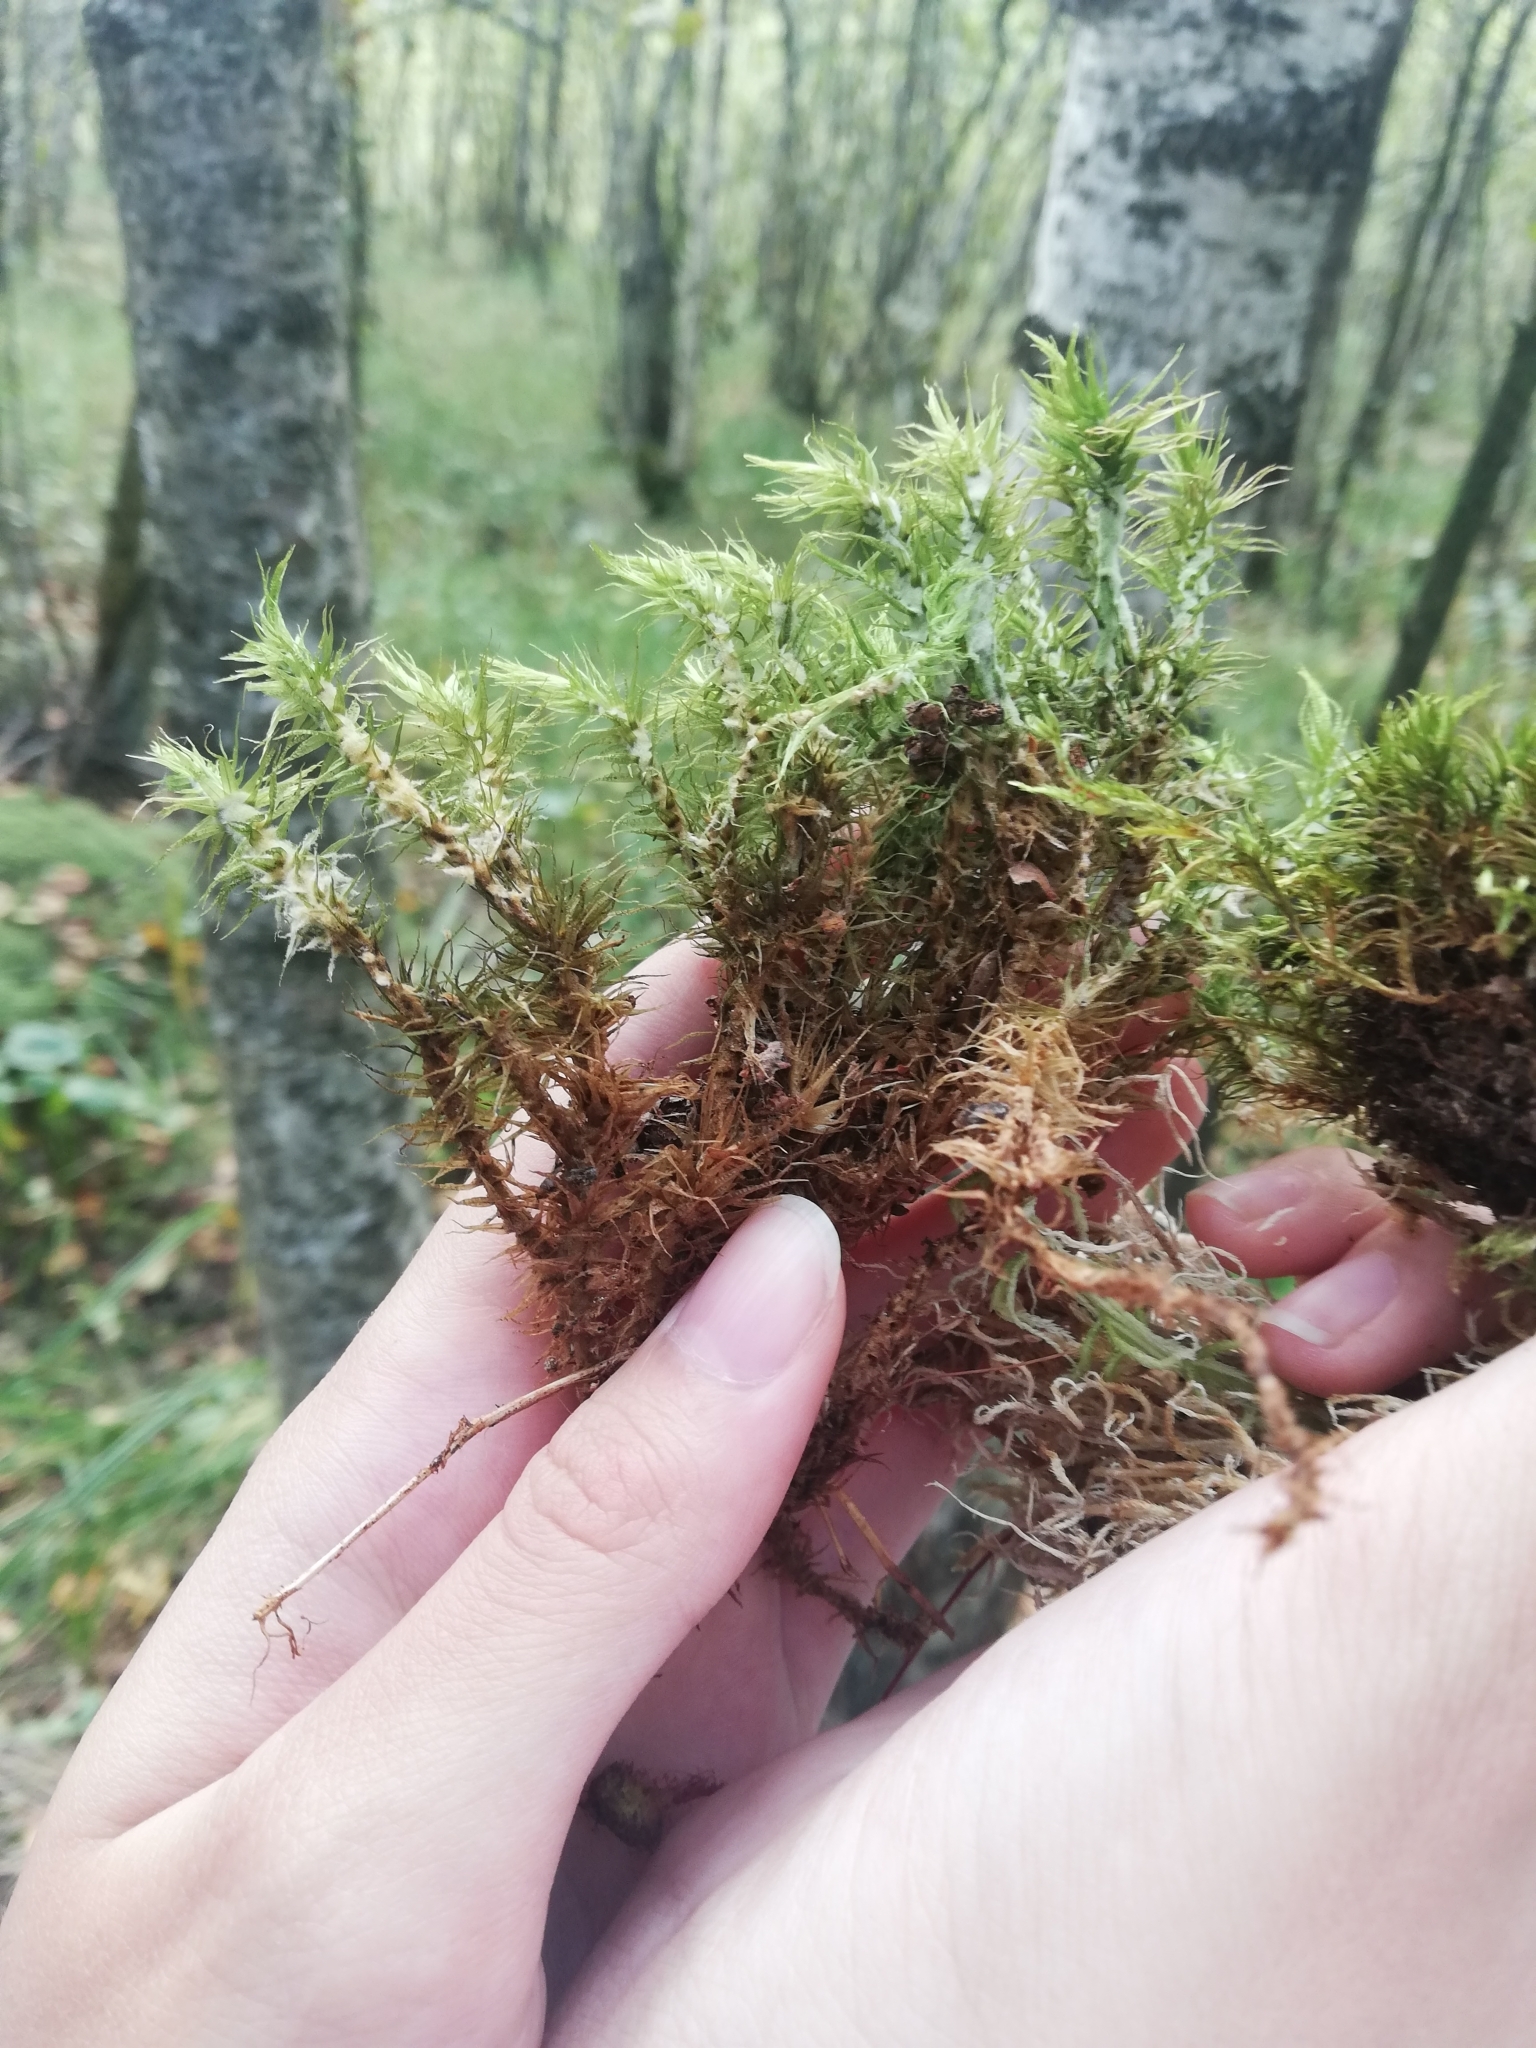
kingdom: Plantae
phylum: Bryophyta
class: Bryopsida
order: Dicranales
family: Dicranaceae
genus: Dicranum
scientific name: Dicranum polysetum
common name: Rugose fork-moss
